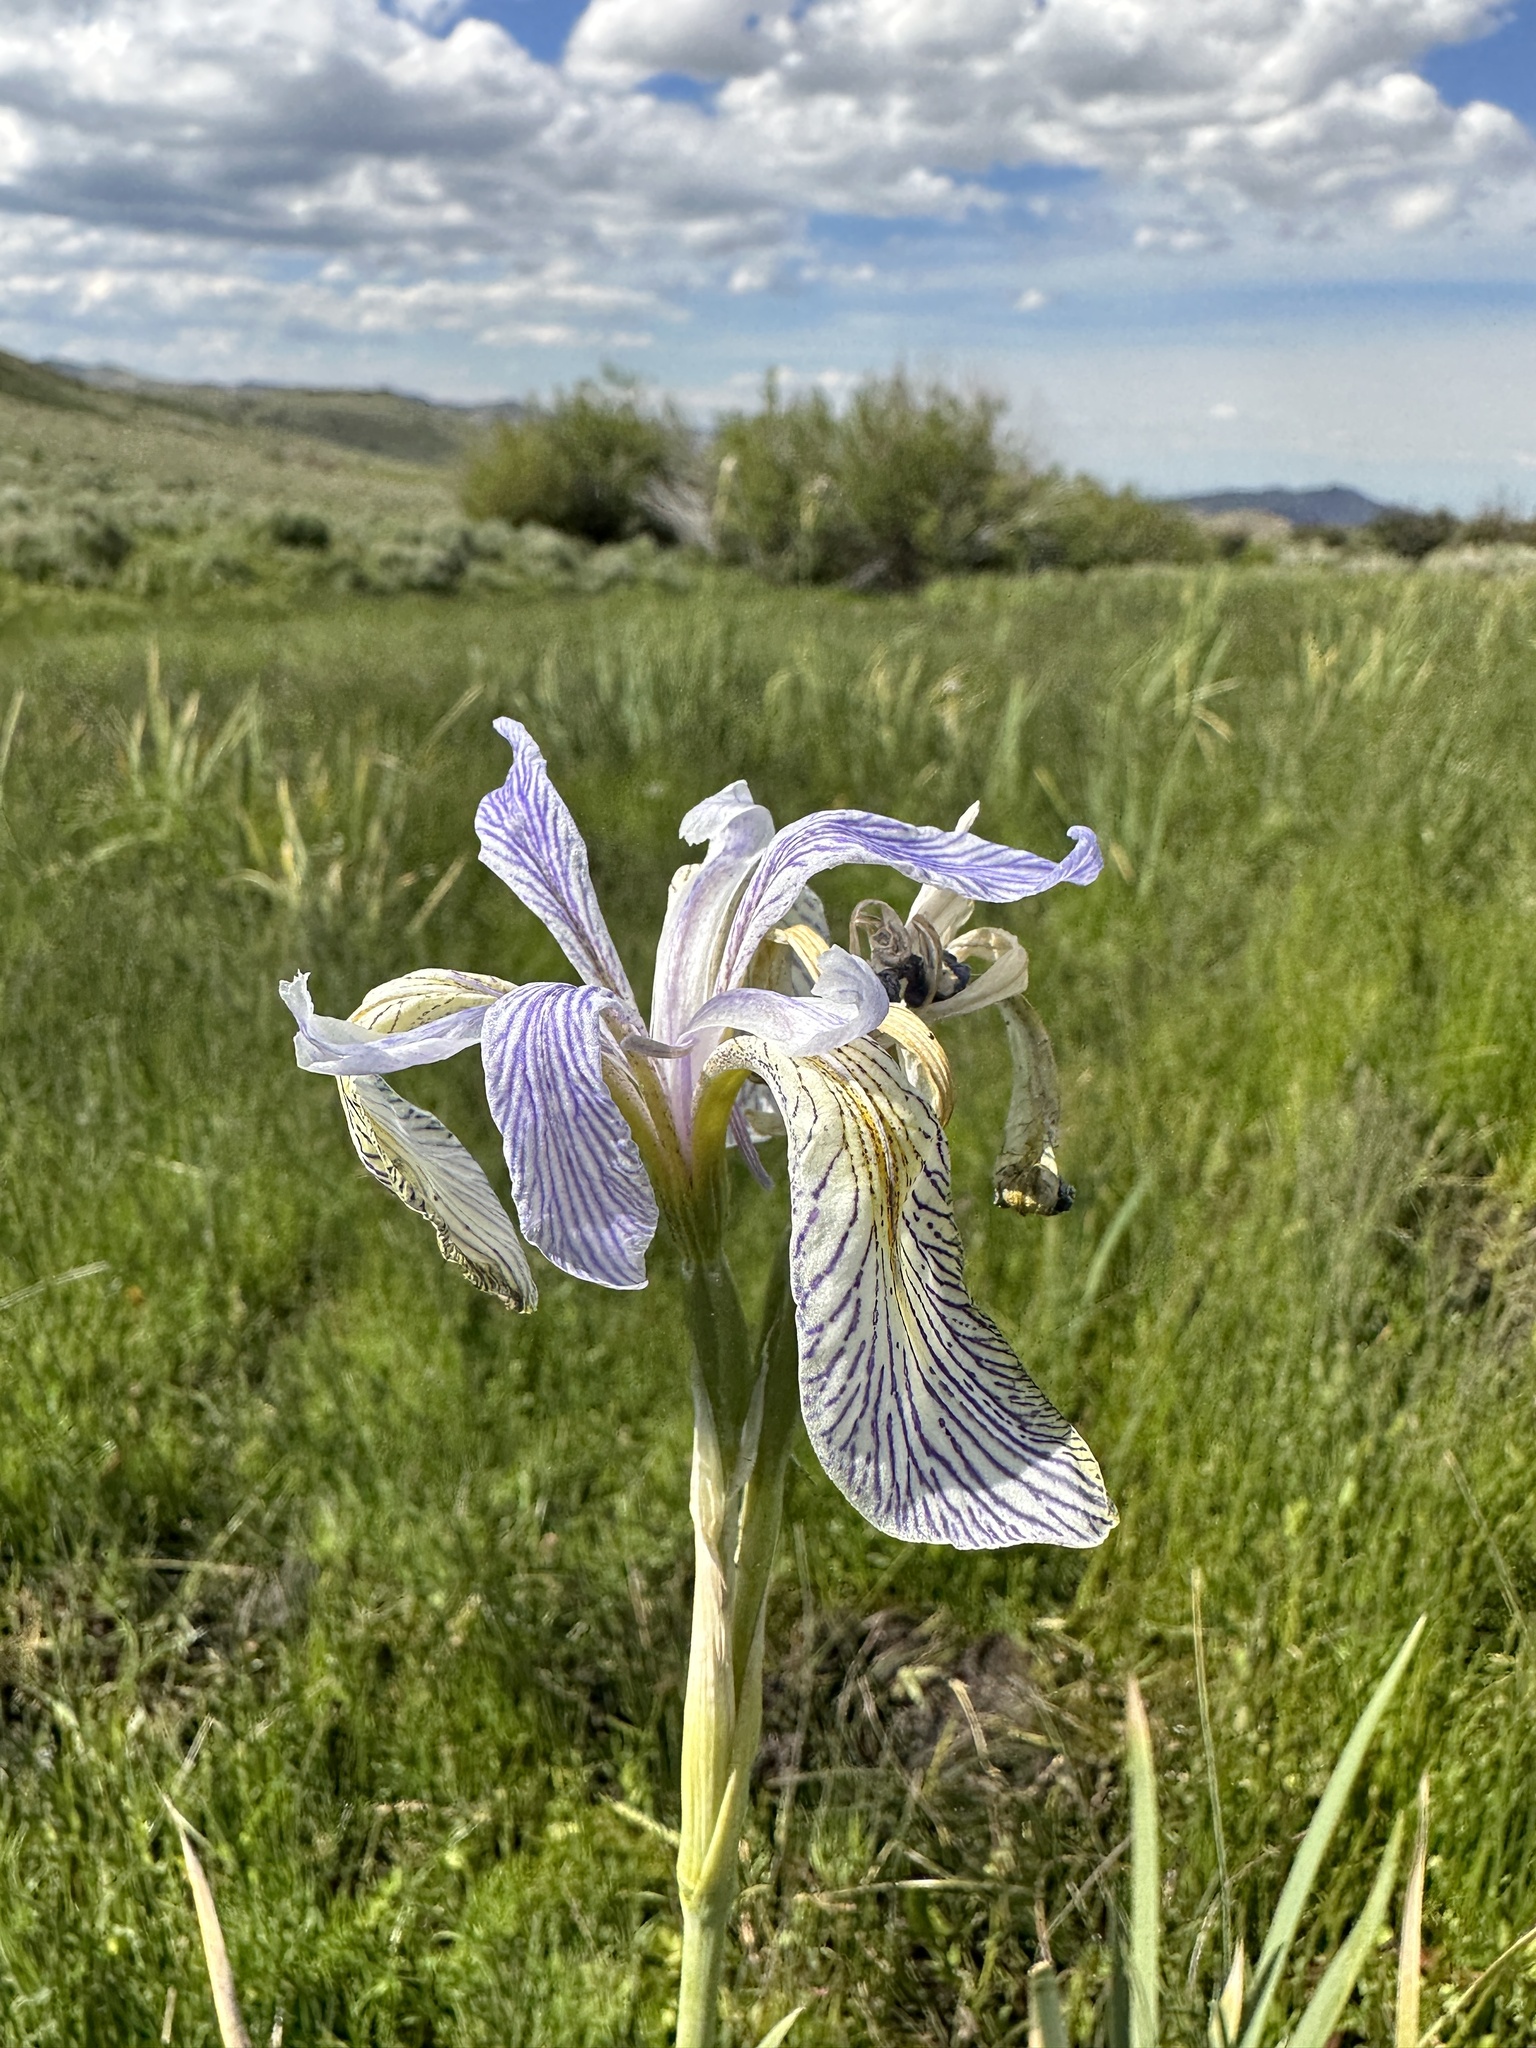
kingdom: Plantae
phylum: Tracheophyta
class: Liliopsida
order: Asparagales
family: Iridaceae
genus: Iris
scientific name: Iris missouriensis
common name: Rocky mountain iris
